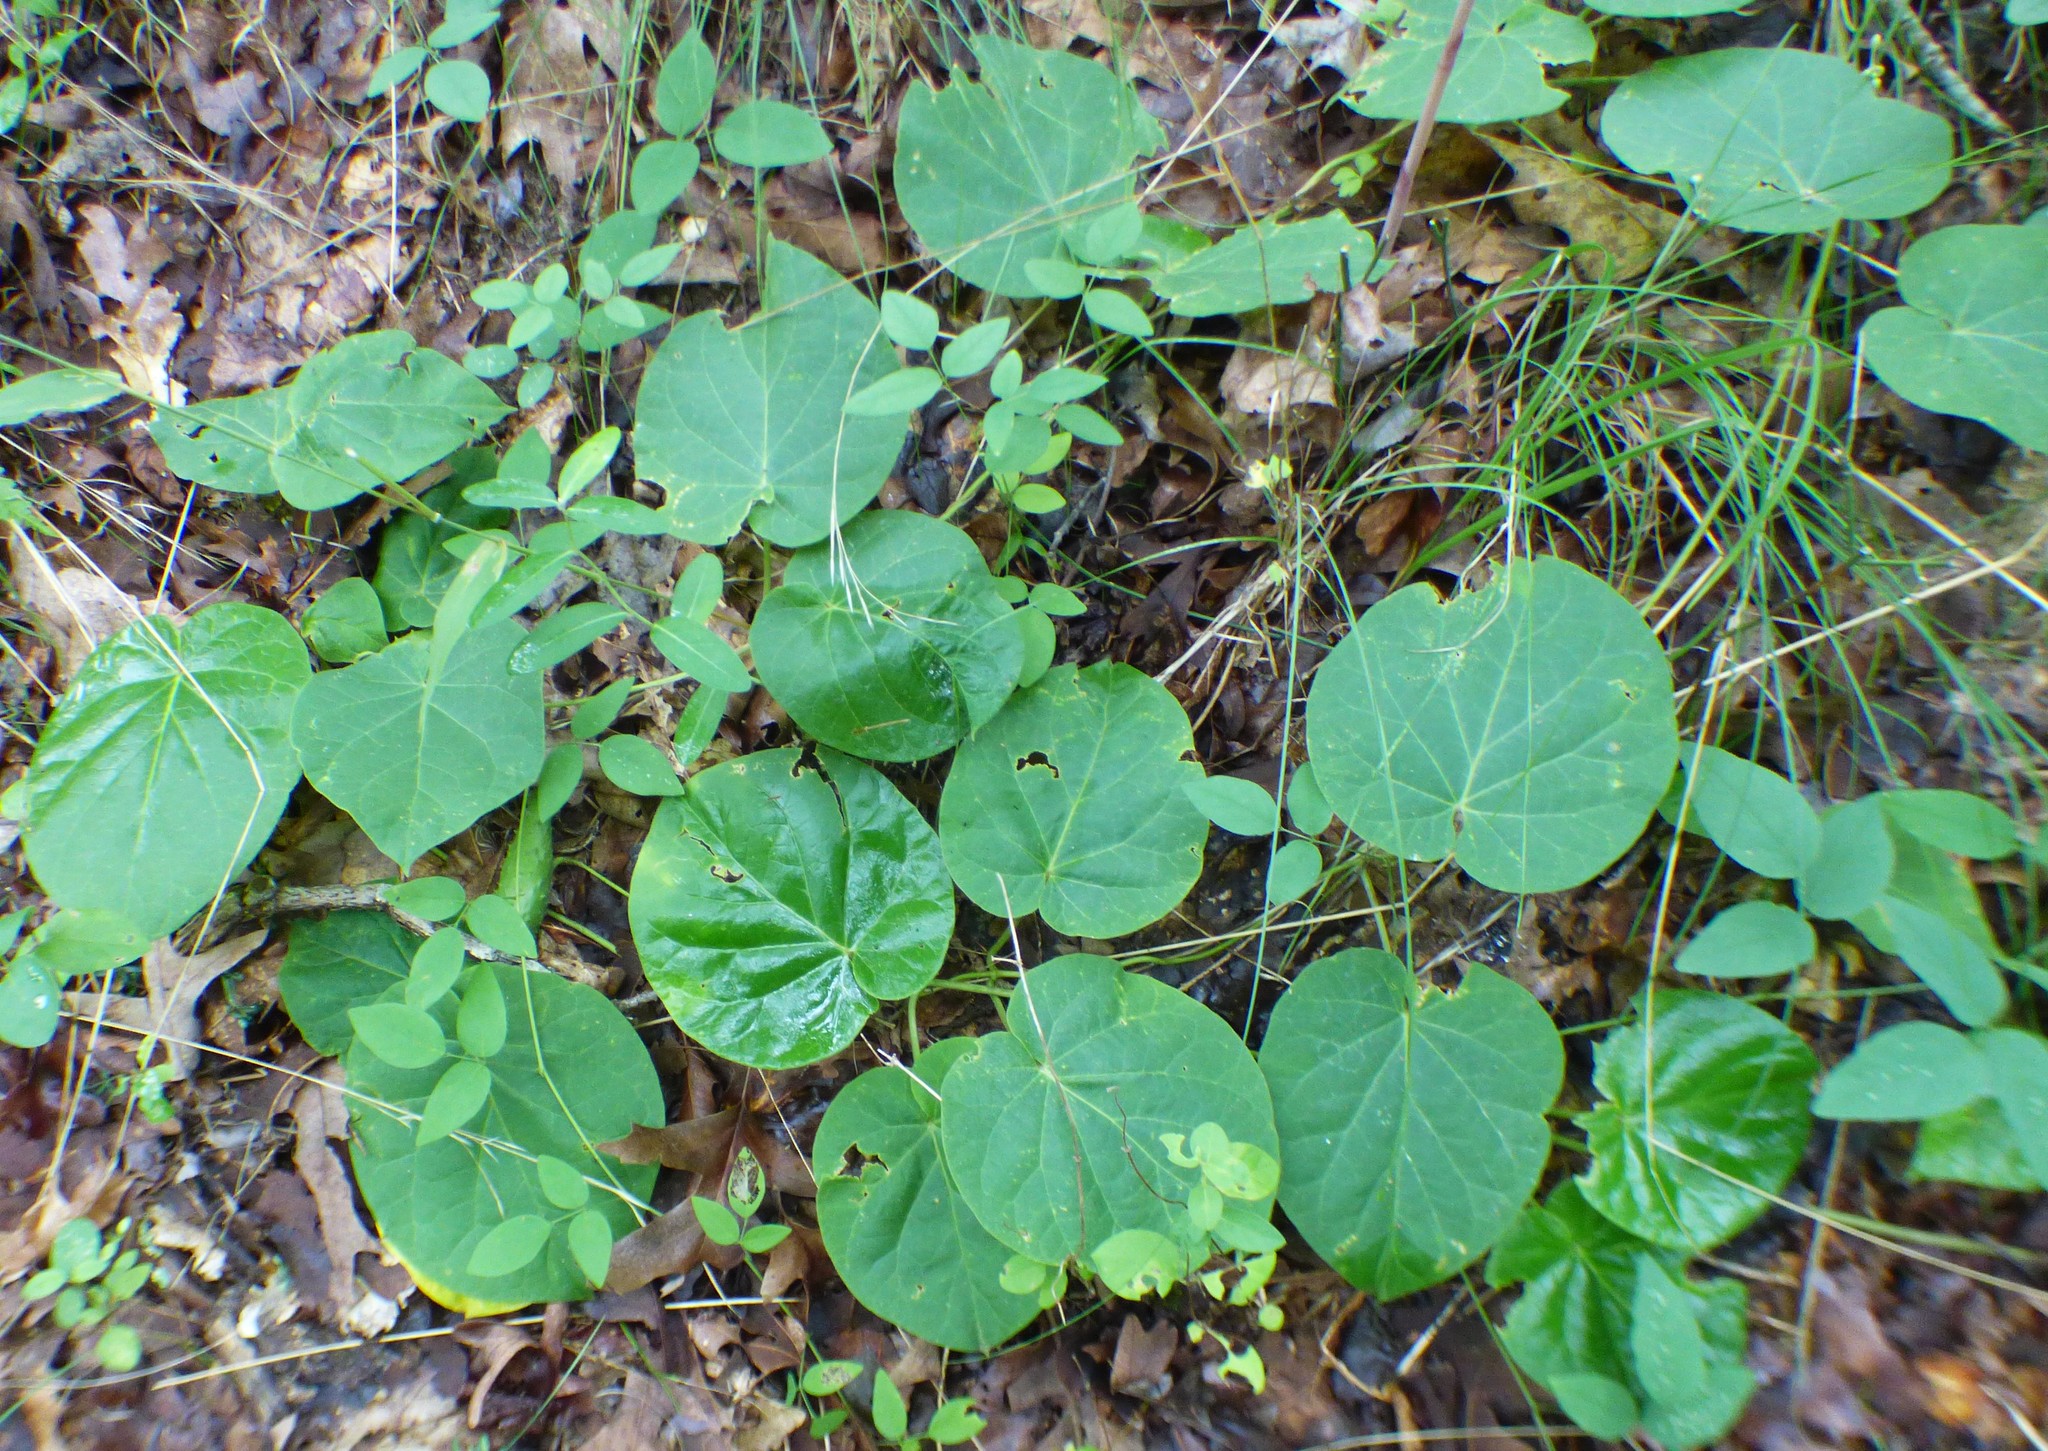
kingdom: Plantae
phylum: Tracheophyta
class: Magnoliopsida
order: Gentianales
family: Apocynaceae
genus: Matelea
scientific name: Matelea carolinensis
